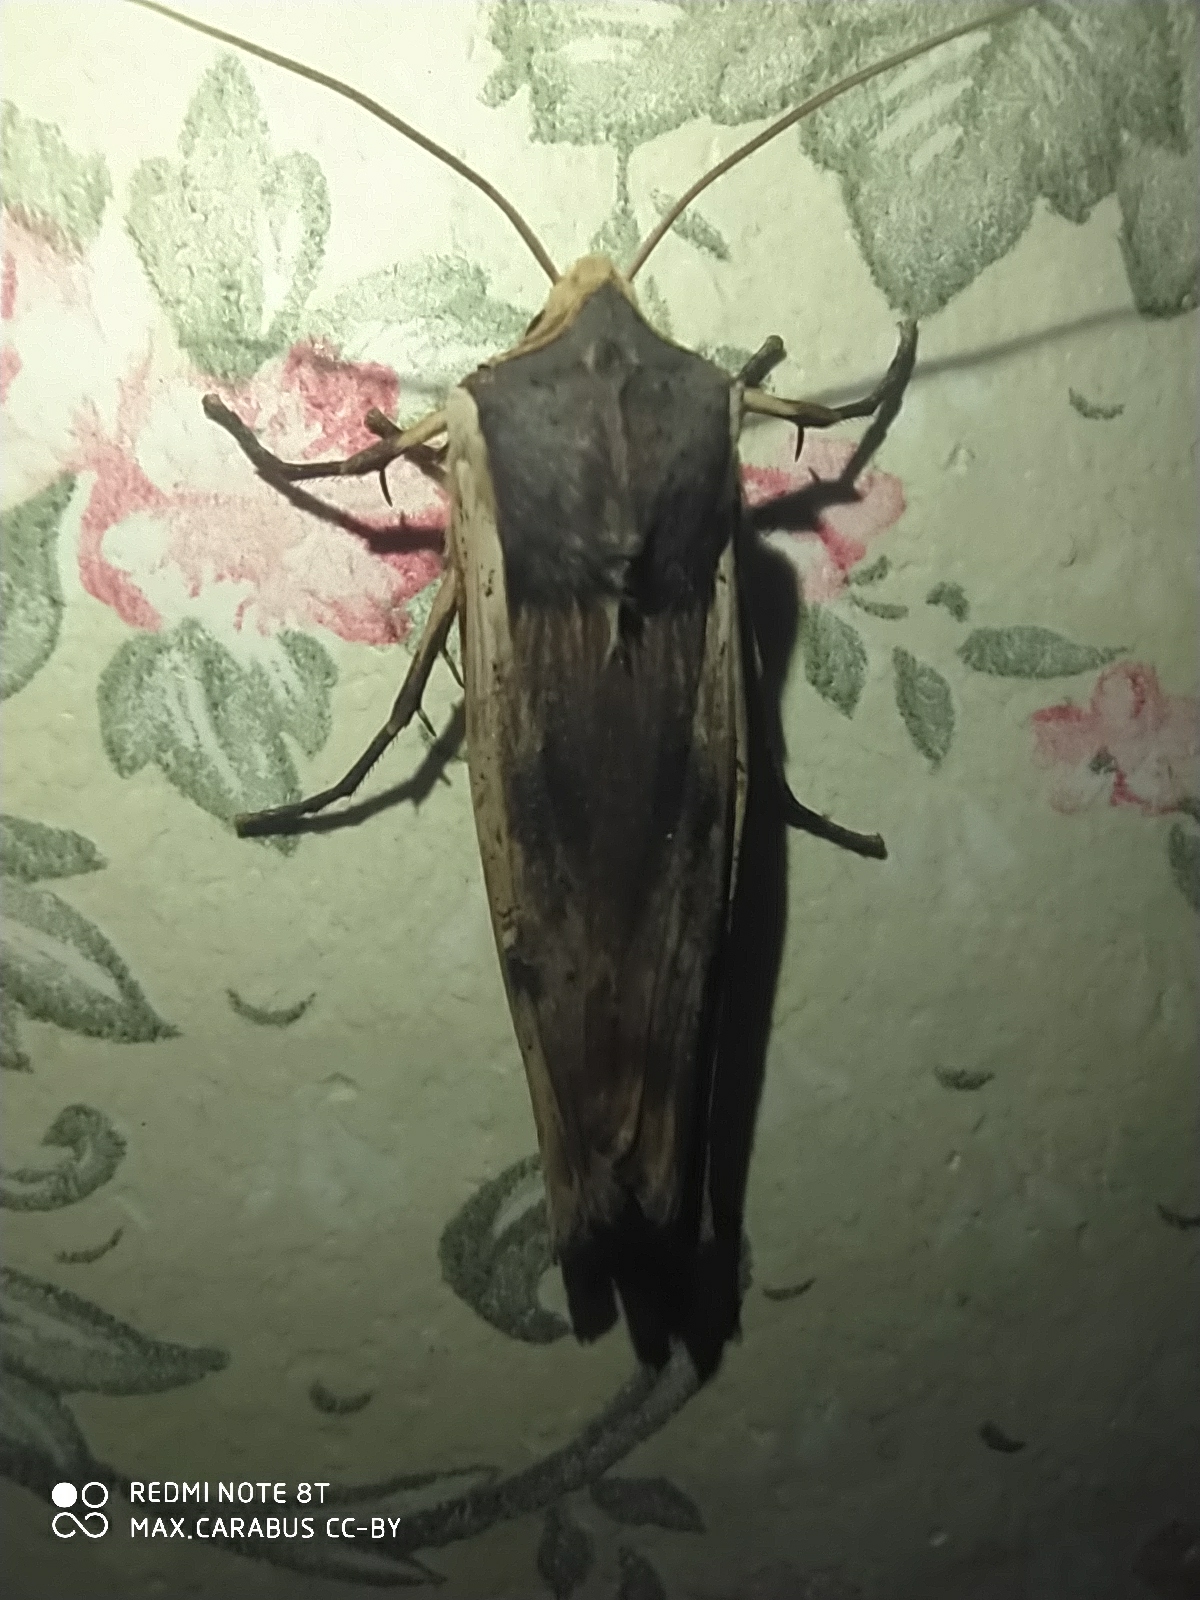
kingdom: Animalia
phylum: Arthropoda
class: Insecta
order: Lepidoptera
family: Noctuidae
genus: Xylena
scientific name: Xylena vetusta
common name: Red sword-grass
